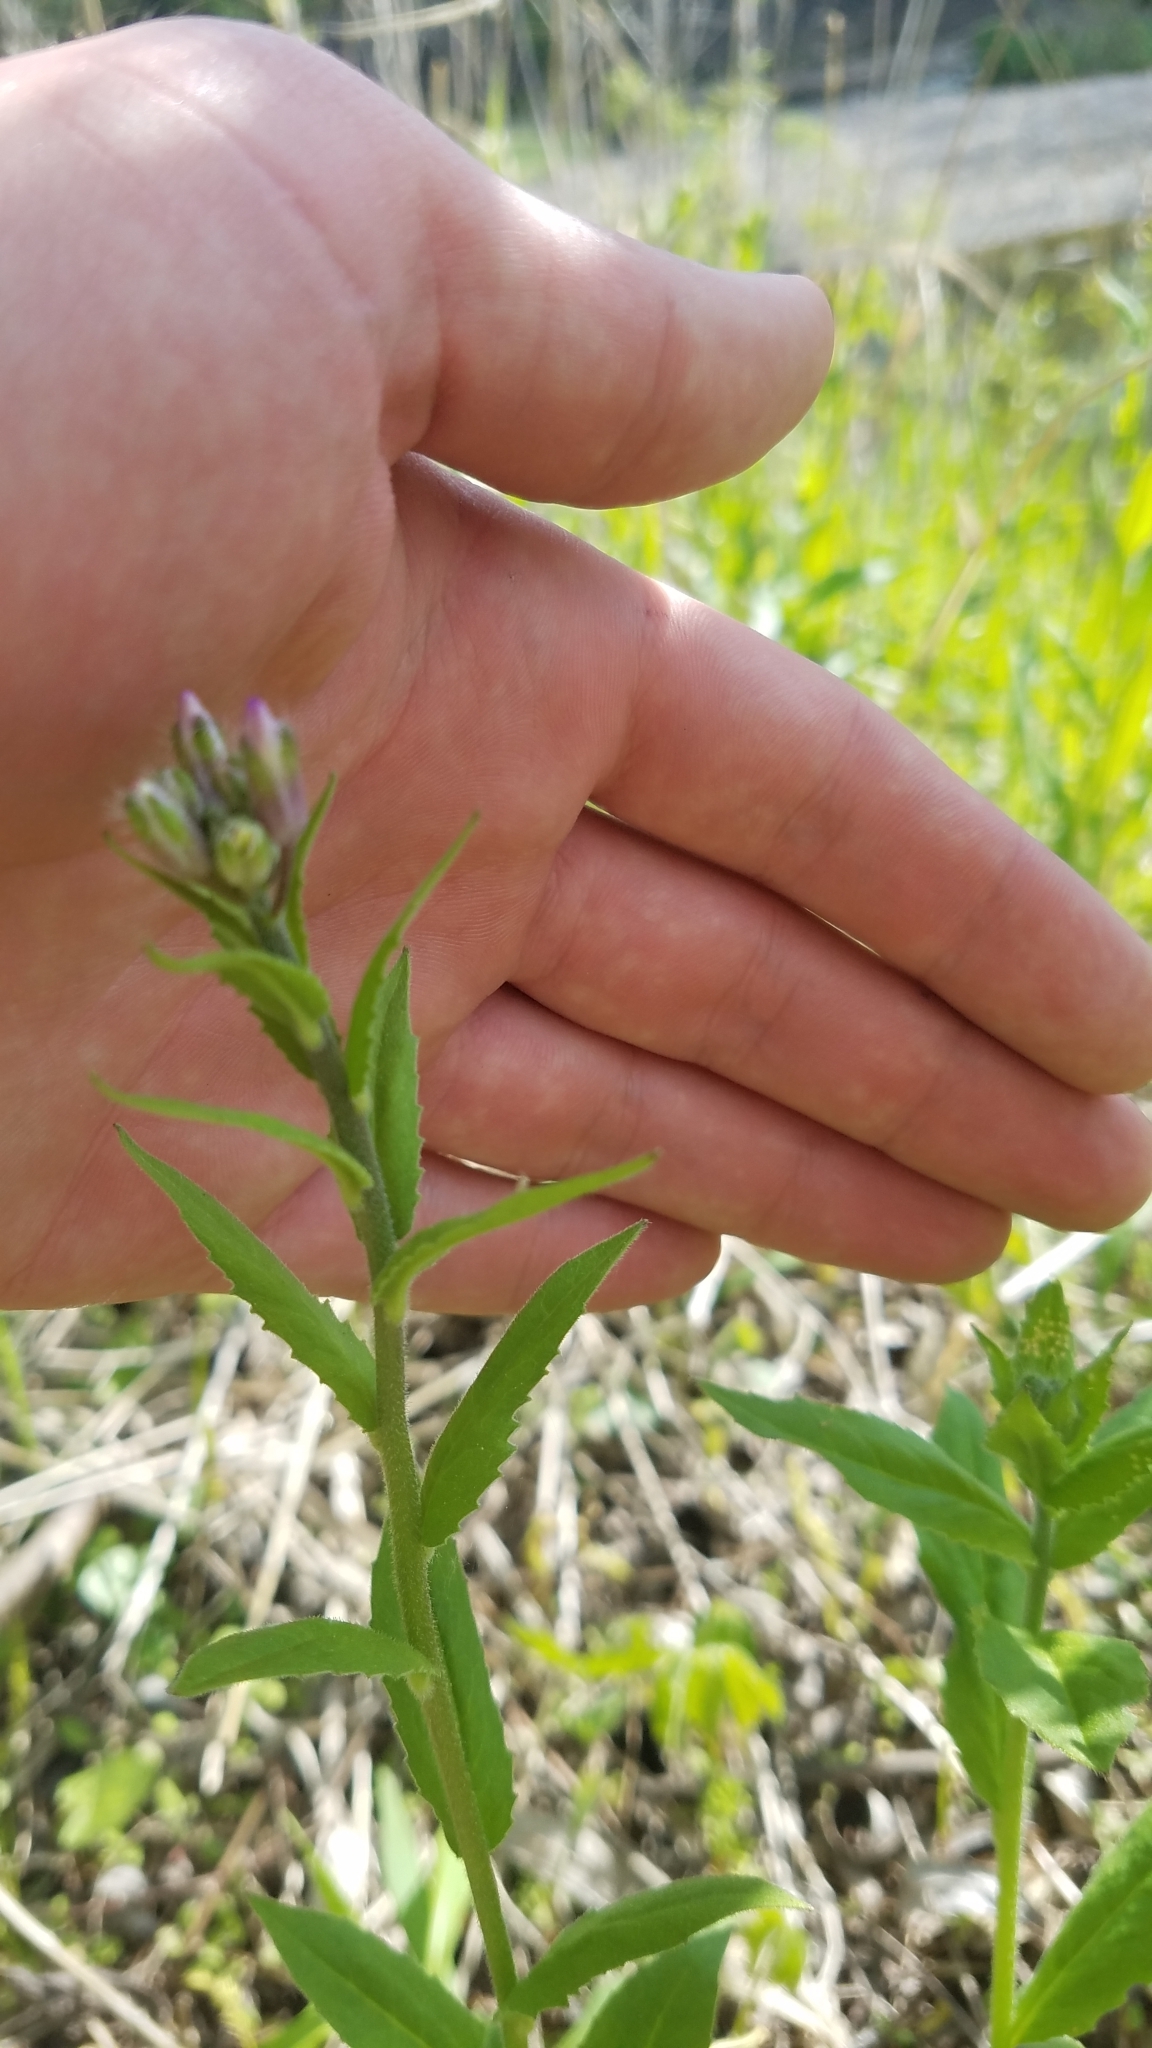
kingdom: Plantae
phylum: Tracheophyta
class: Magnoliopsida
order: Brassicales
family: Brassicaceae
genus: Hesperis
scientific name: Hesperis matronalis
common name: Dame's-violet
